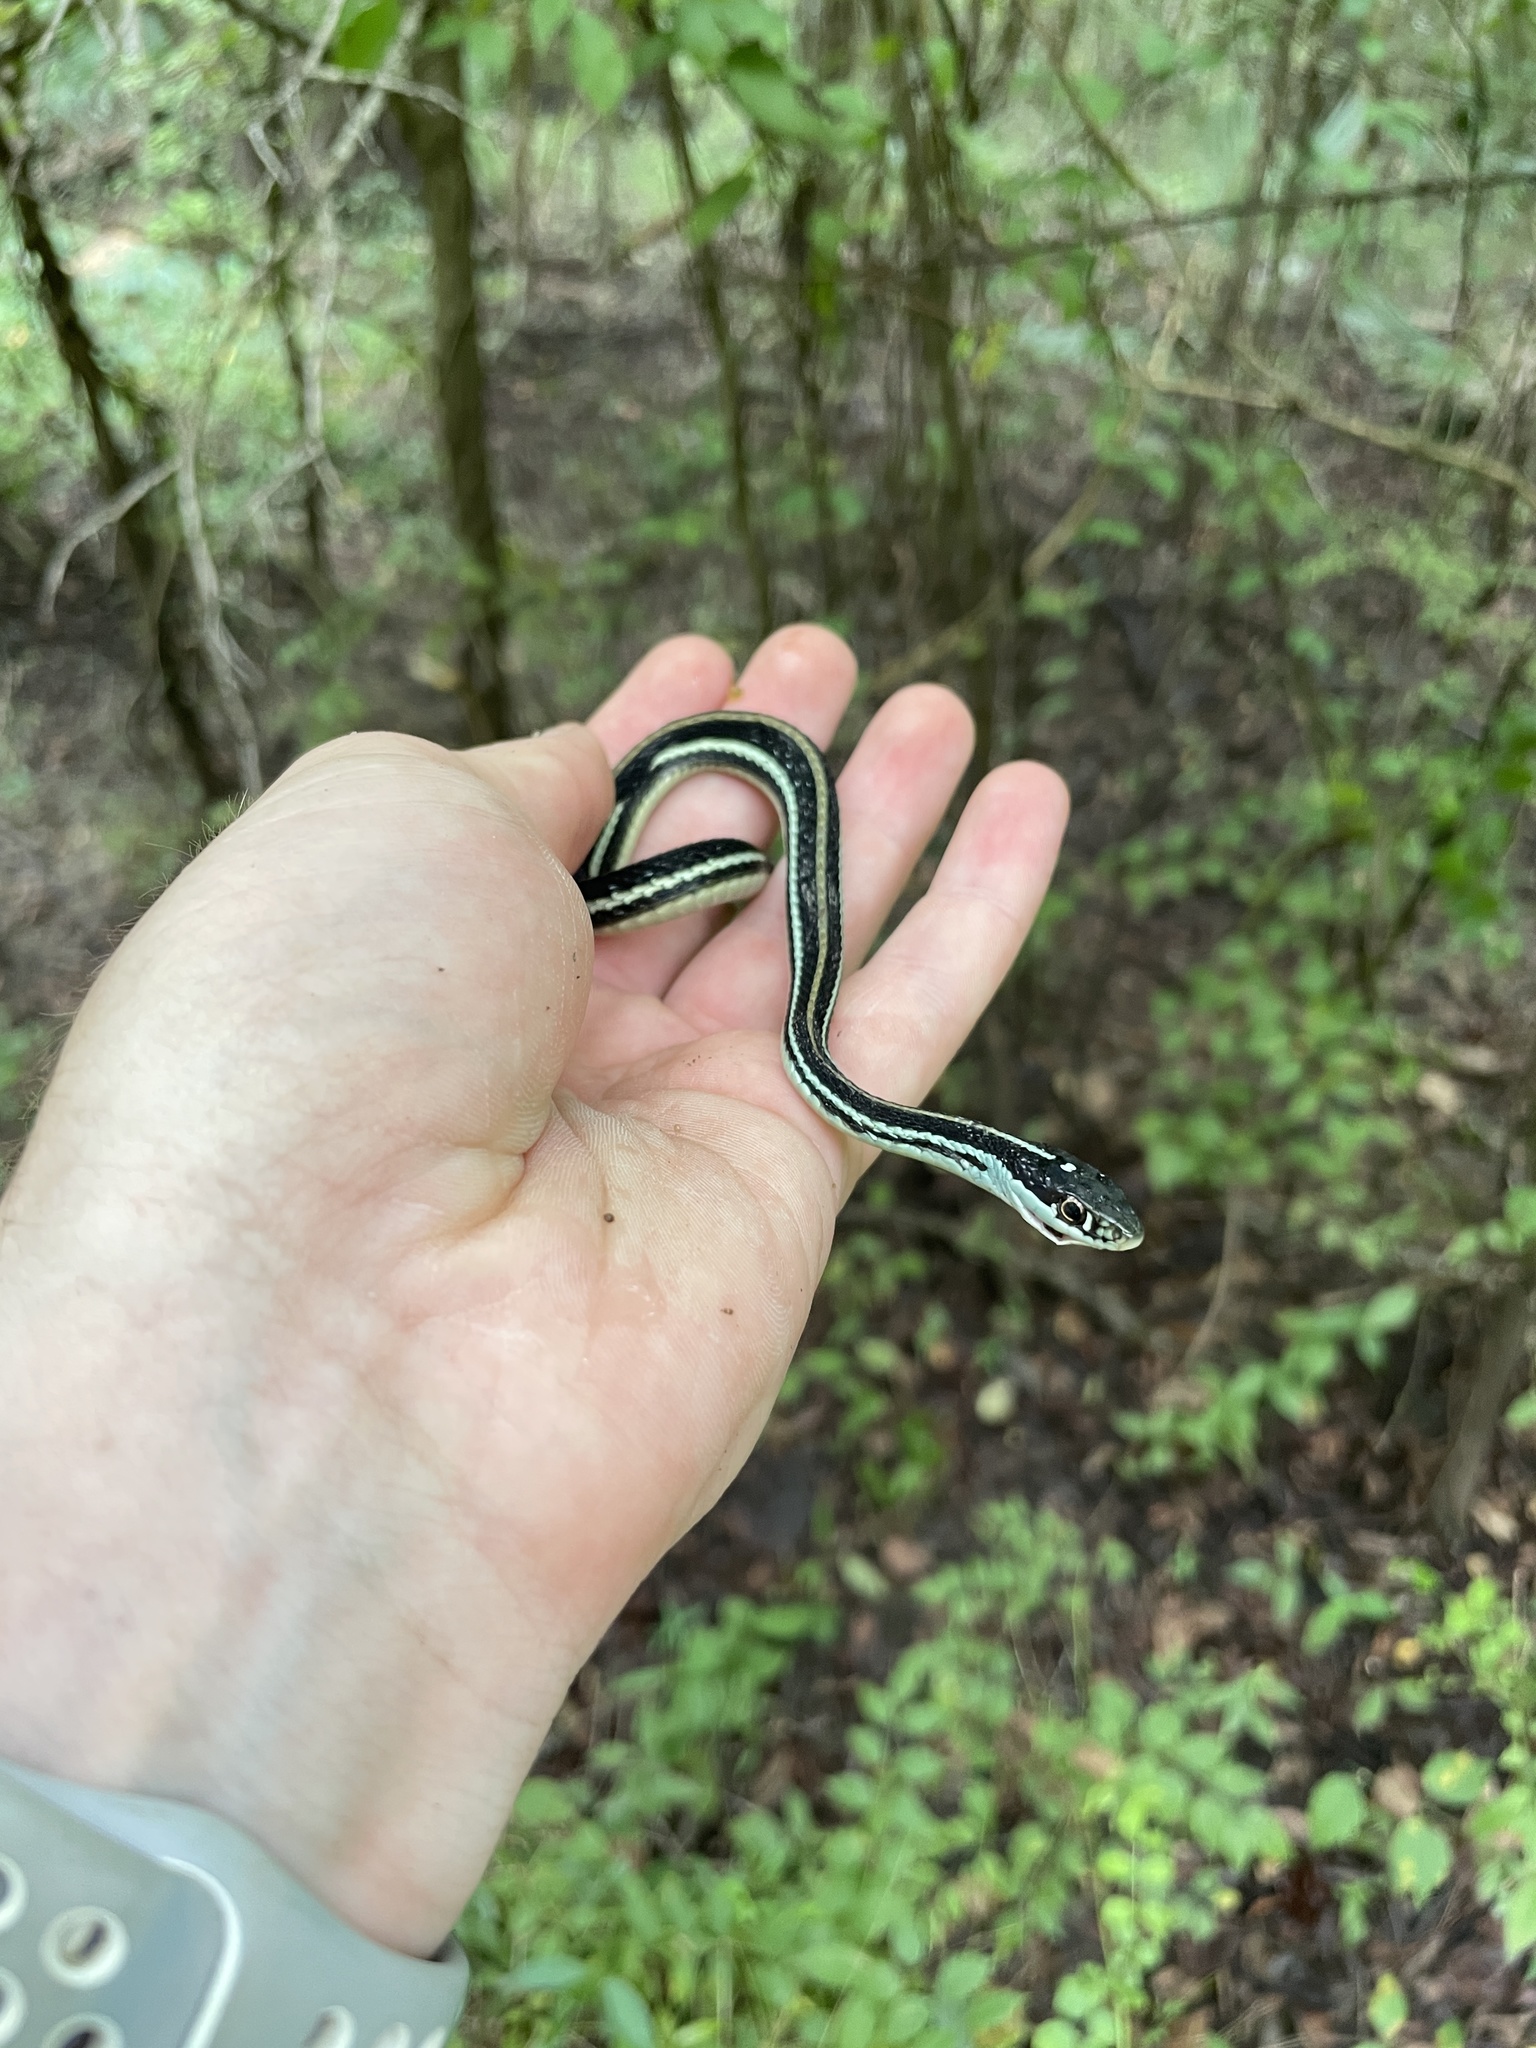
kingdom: Animalia
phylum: Chordata
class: Squamata
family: Colubridae
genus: Thamnophis
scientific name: Thamnophis proximus
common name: Western ribbon snake
